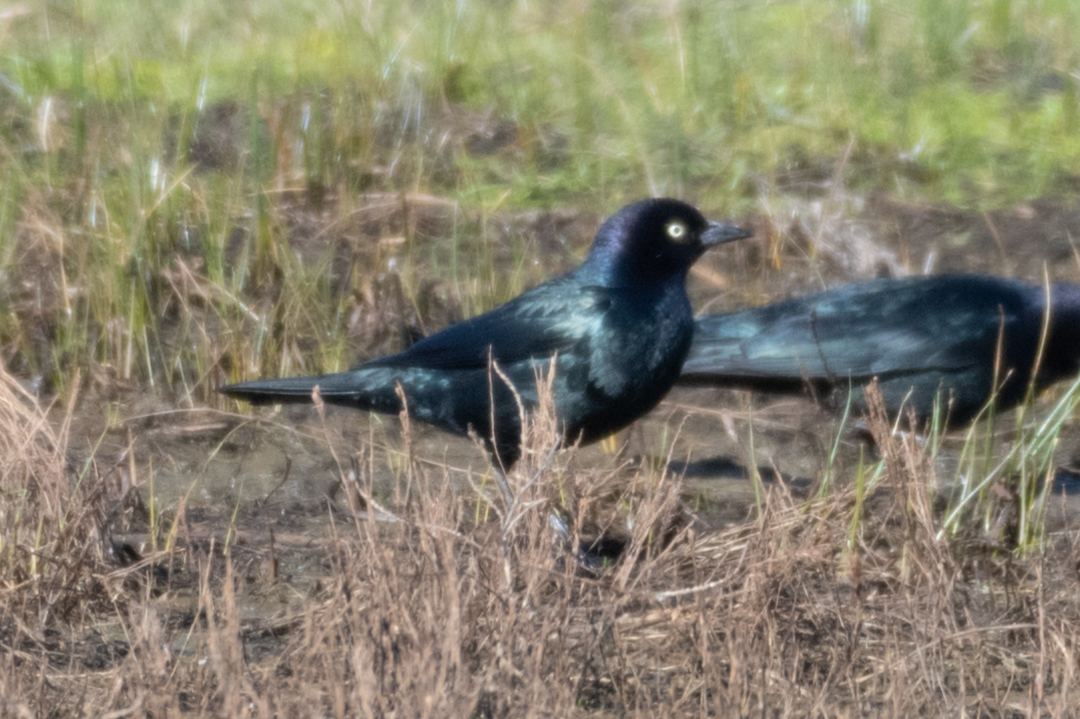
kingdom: Animalia
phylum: Chordata
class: Aves
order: Passeriformes
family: Icteridae
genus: Euphagus
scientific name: Euphagus cyanocephalus
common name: Brewer's blackbird
